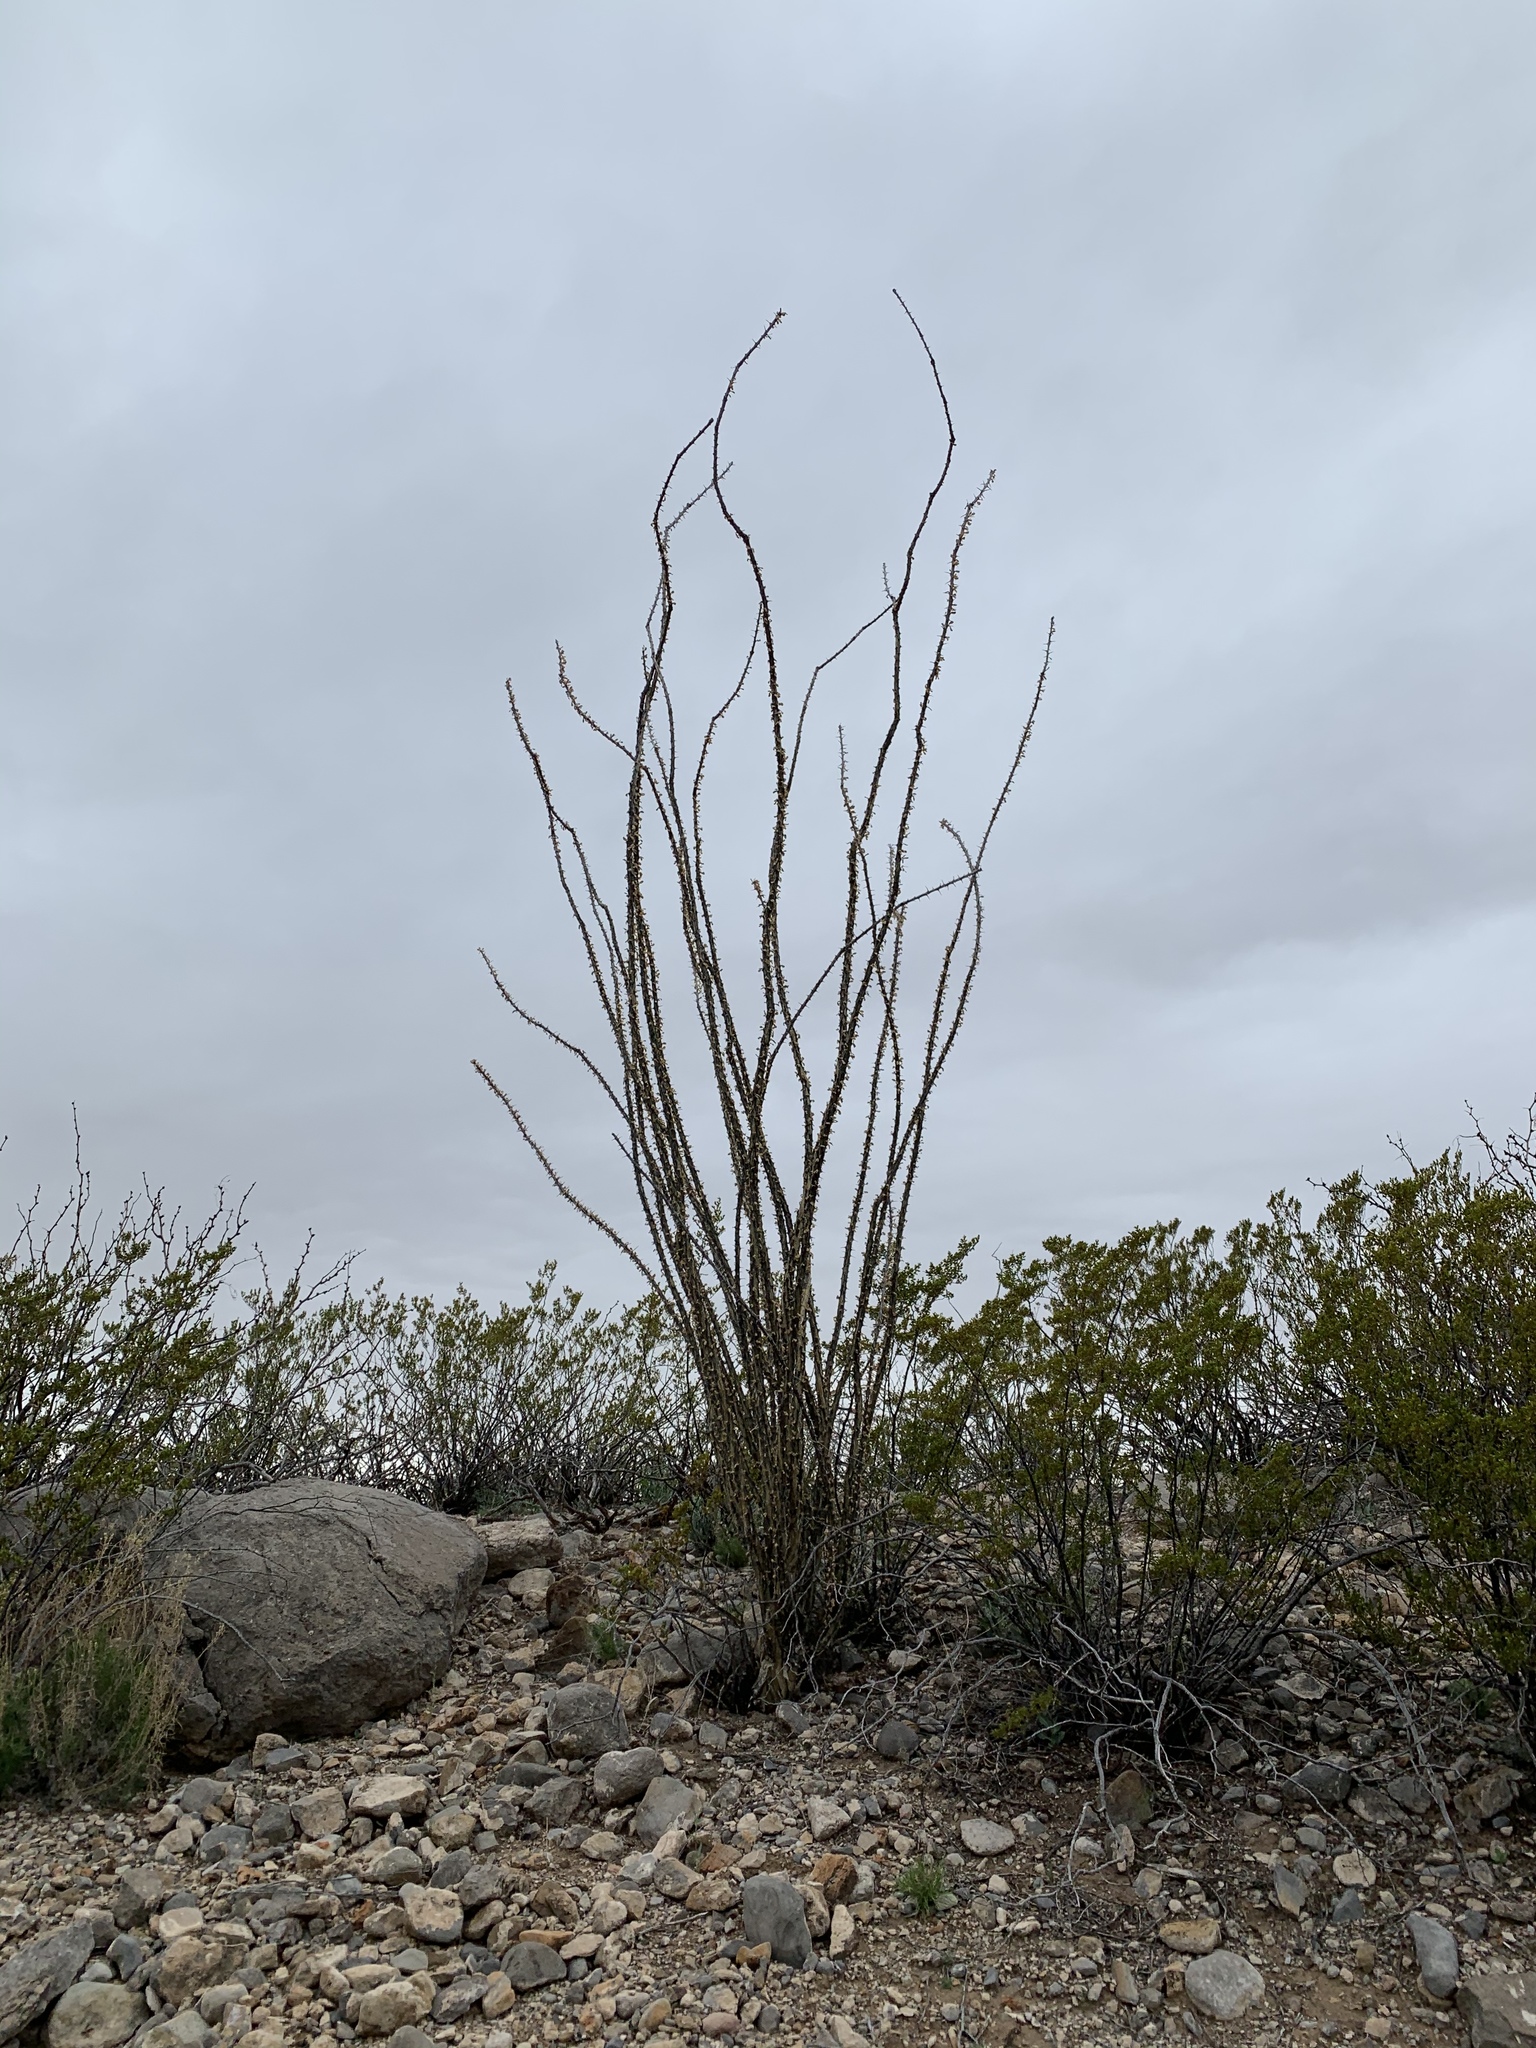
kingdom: Plantae
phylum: Tracheophyta
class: Magnoliopsida
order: Ericales
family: Fouquieriaceae
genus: Fouquieria
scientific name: Fouquieria splendens
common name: Vine-cactus
